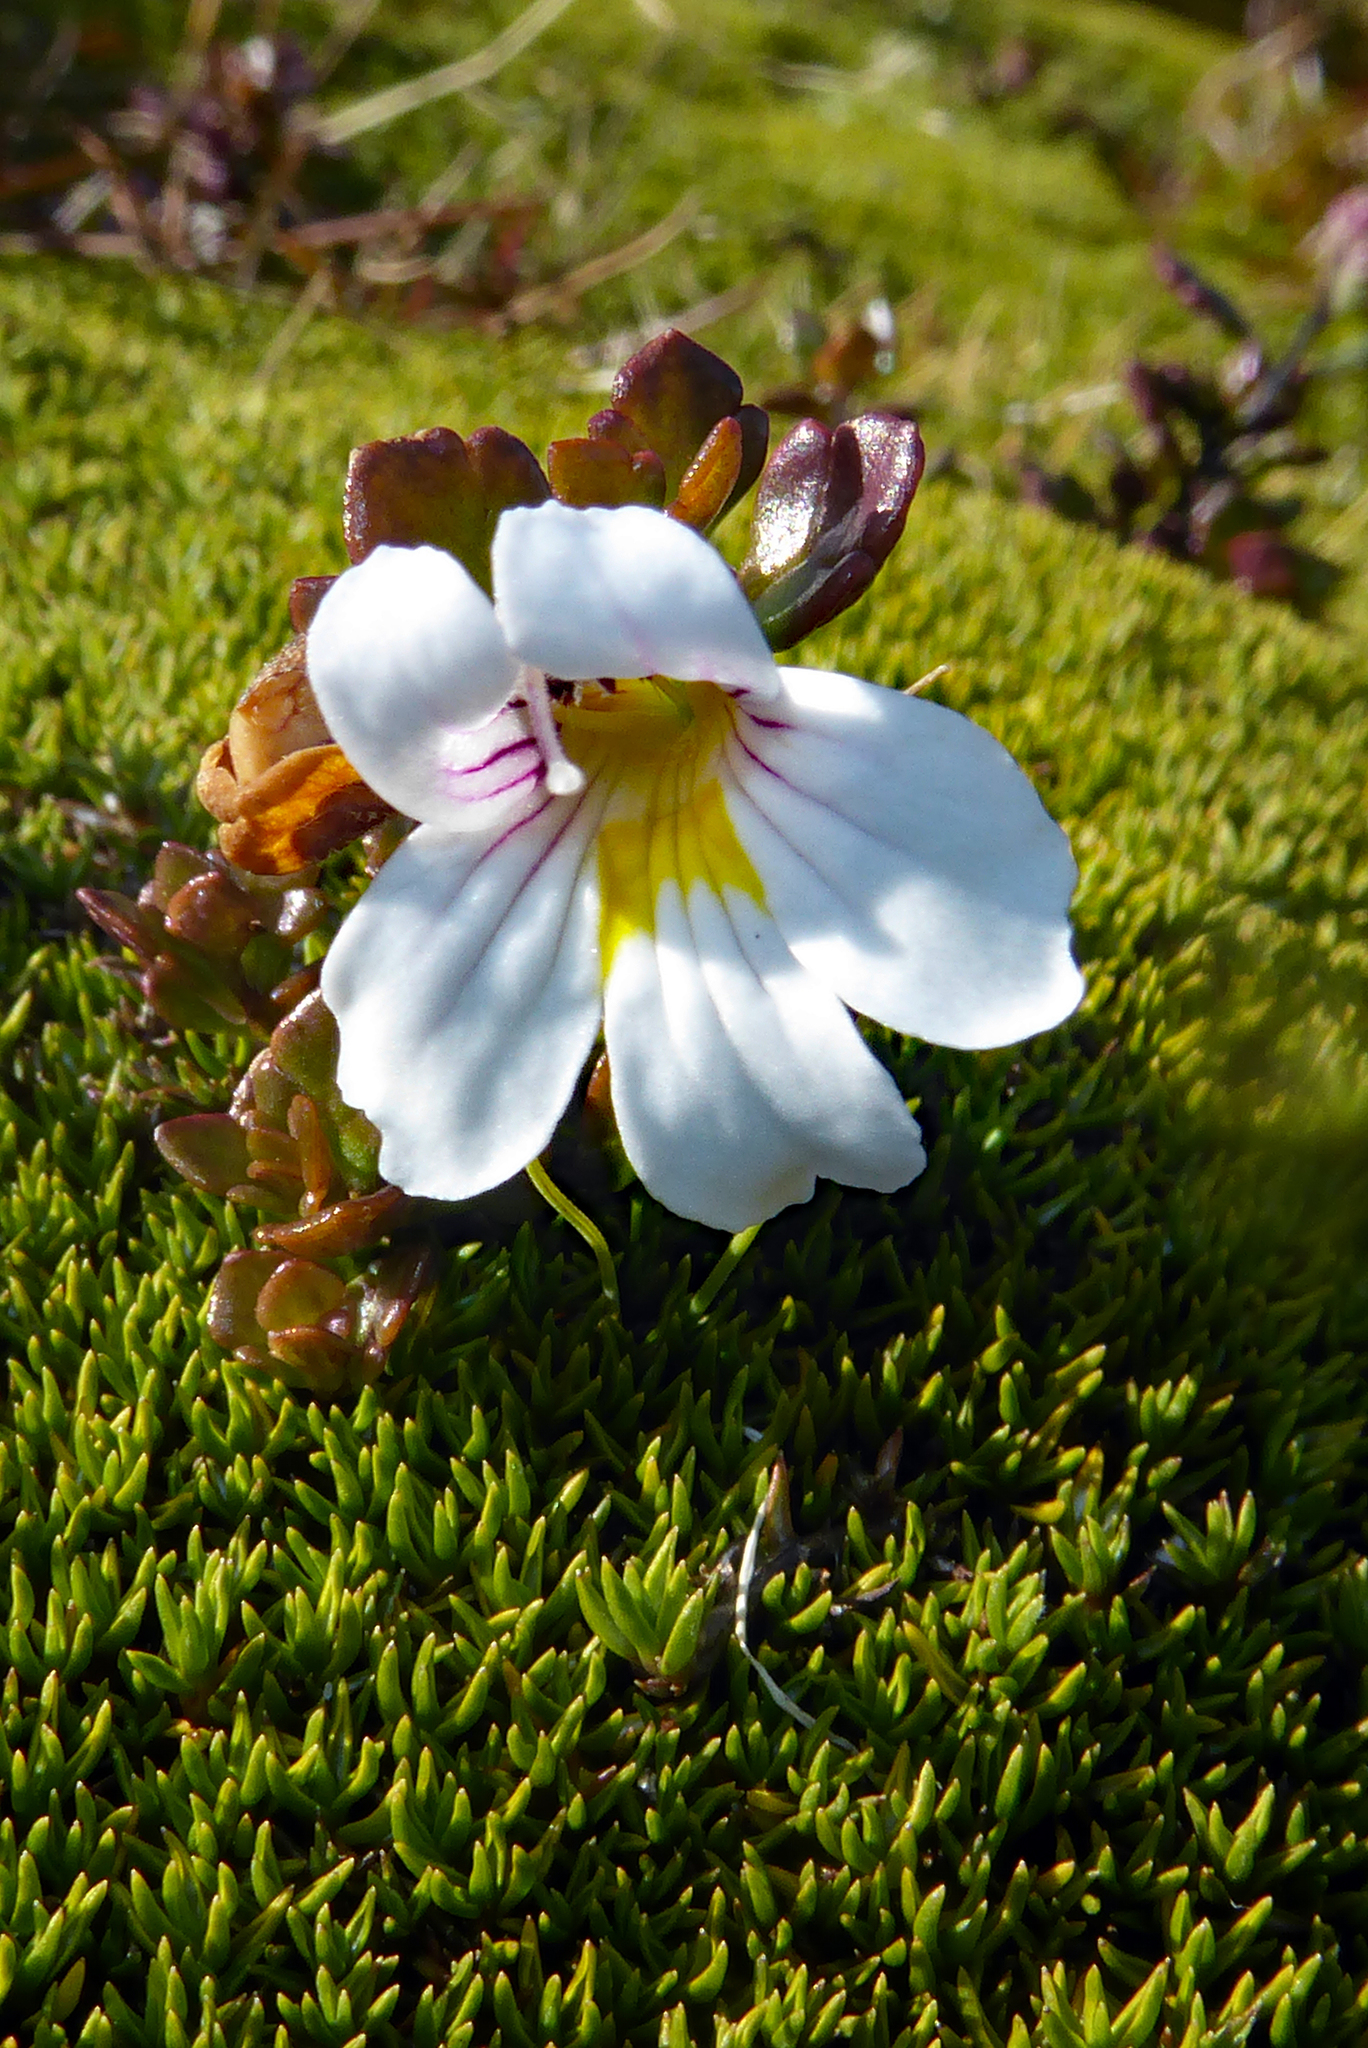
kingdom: Plantae
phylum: Tracheophyta
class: Magnoliopsida
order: Lamiales
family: Orobanchaceae
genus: Euphrasia
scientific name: Euphrasia cuneata
